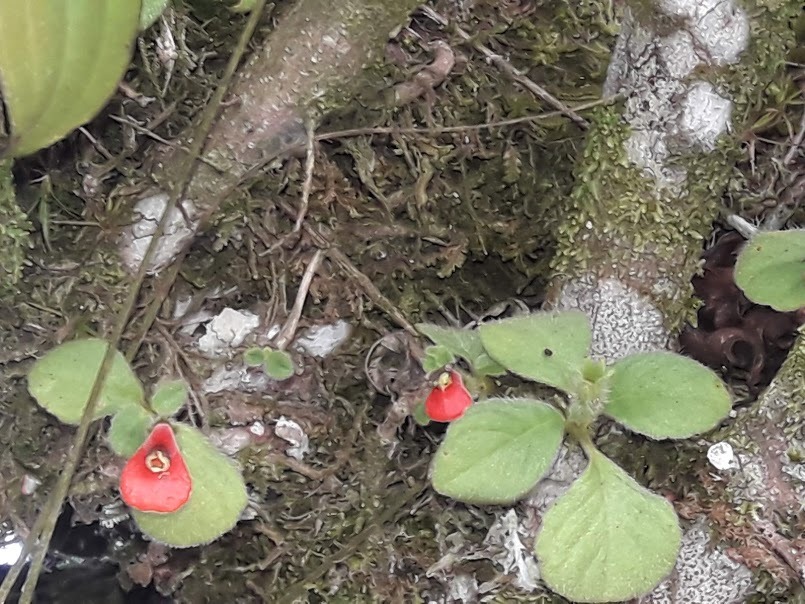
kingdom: Plantae
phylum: Tracheophyta
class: Magnoliopsida
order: Lamiales
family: Gesneriaceae
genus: Pachycaulos
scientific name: Pachycaulos nummularia
